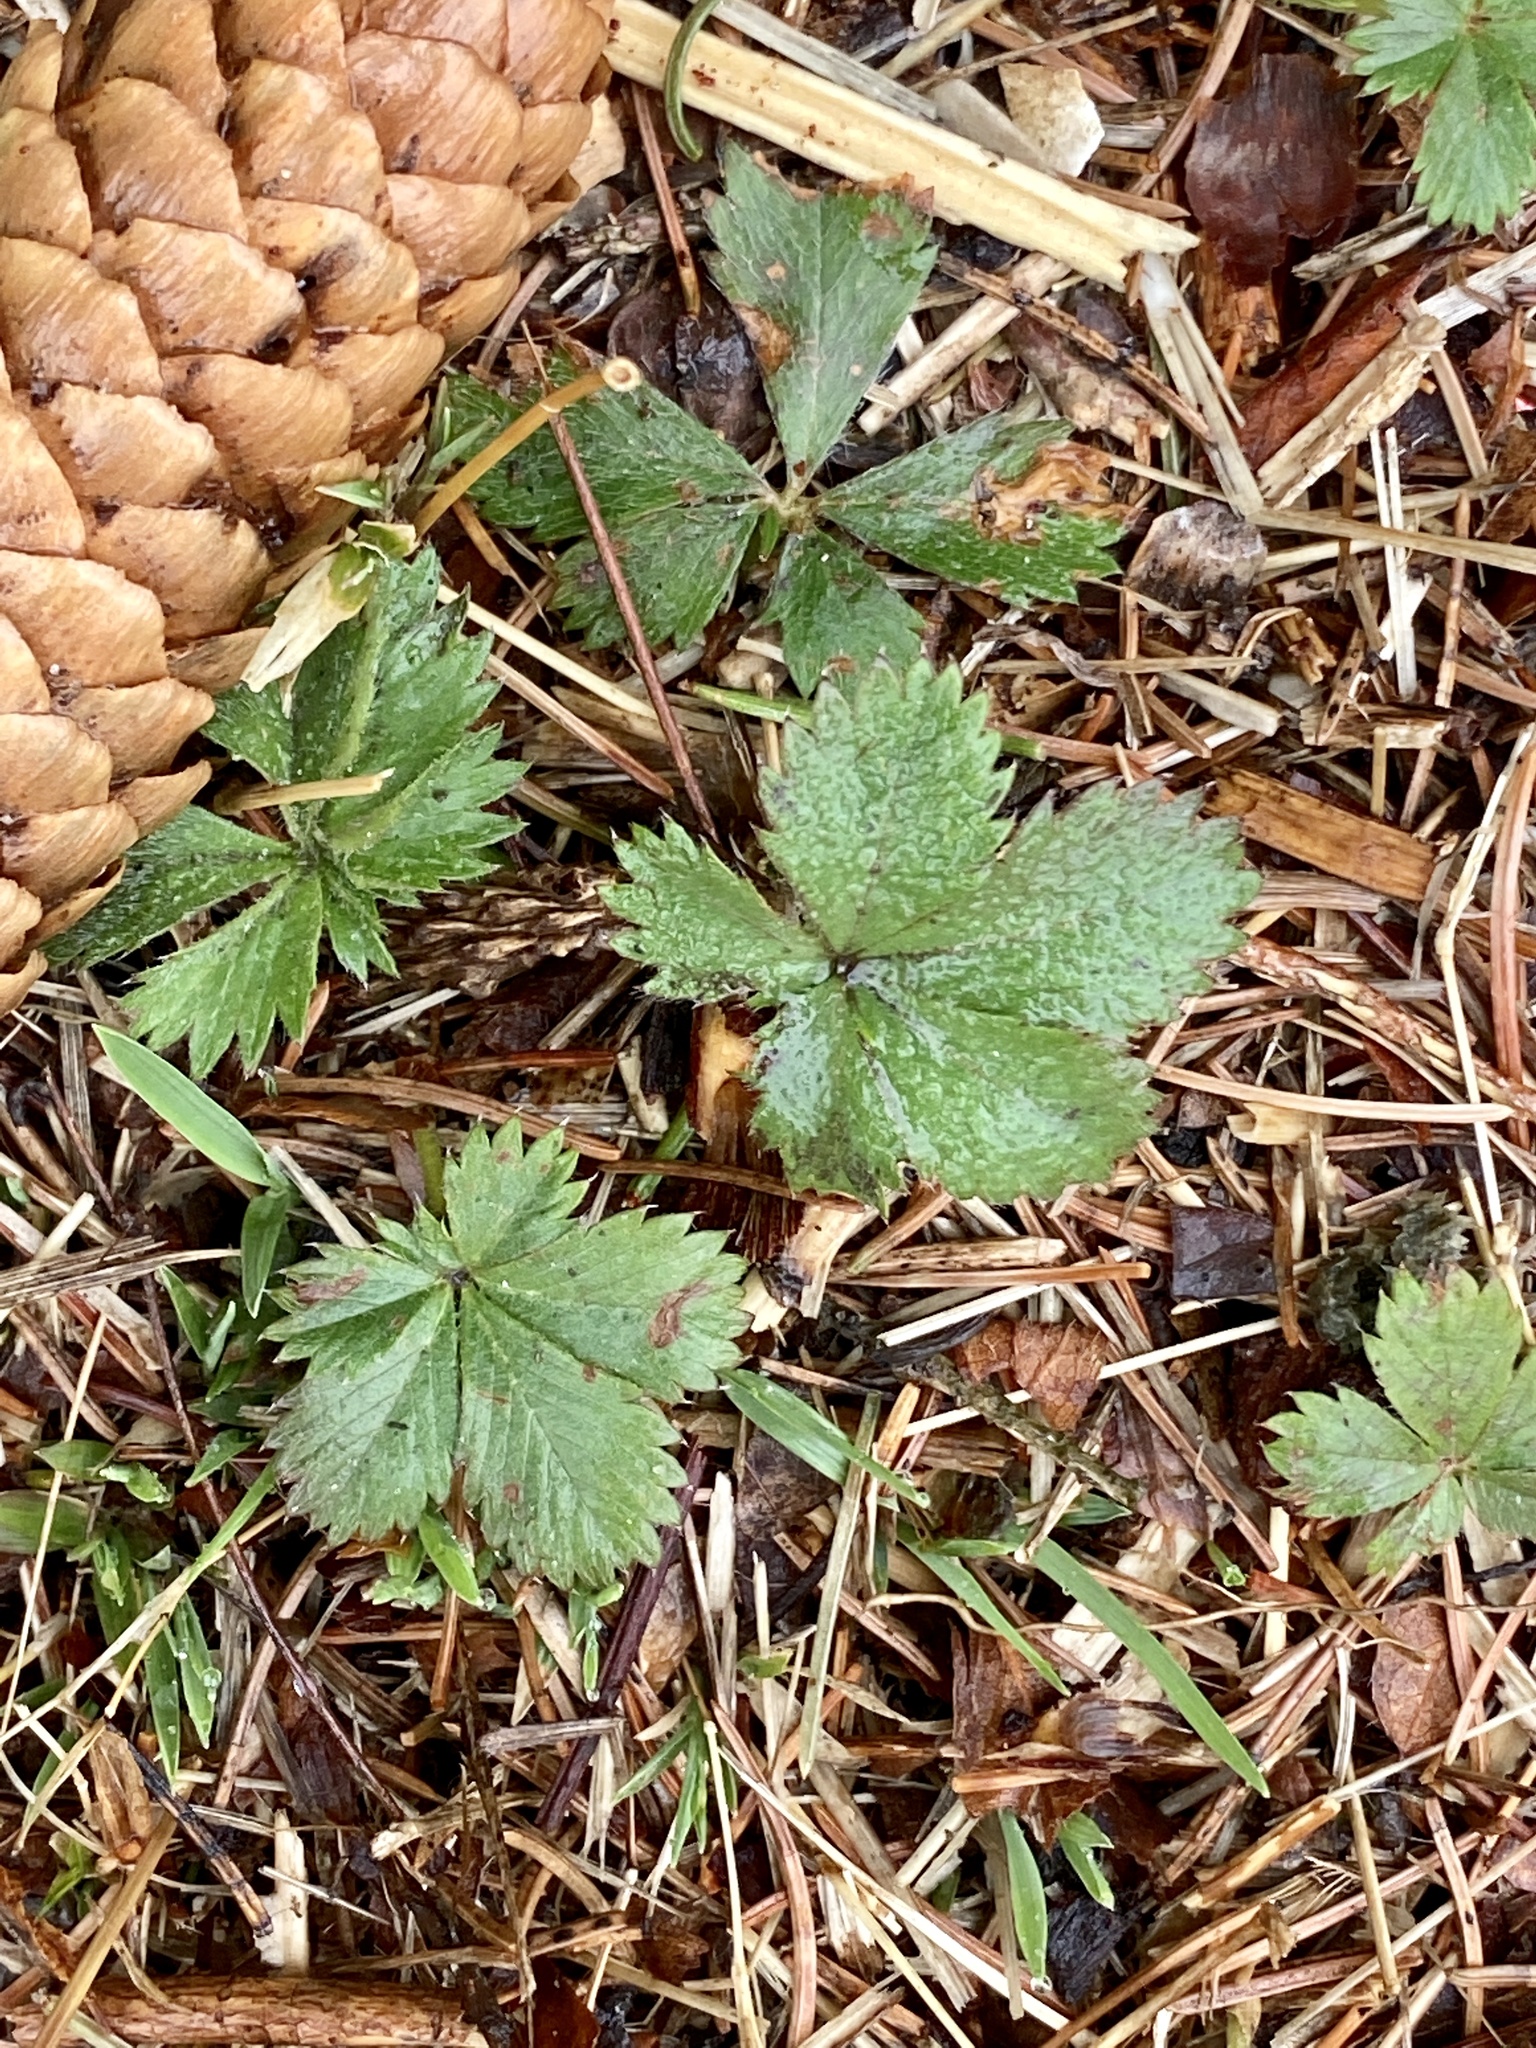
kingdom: Plantae
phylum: Tracheophyta
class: Magnoliopsida
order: Rosales
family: Rosaceae
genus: Potentilla
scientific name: Potentilla canadensis
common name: Canada cinquefoil
